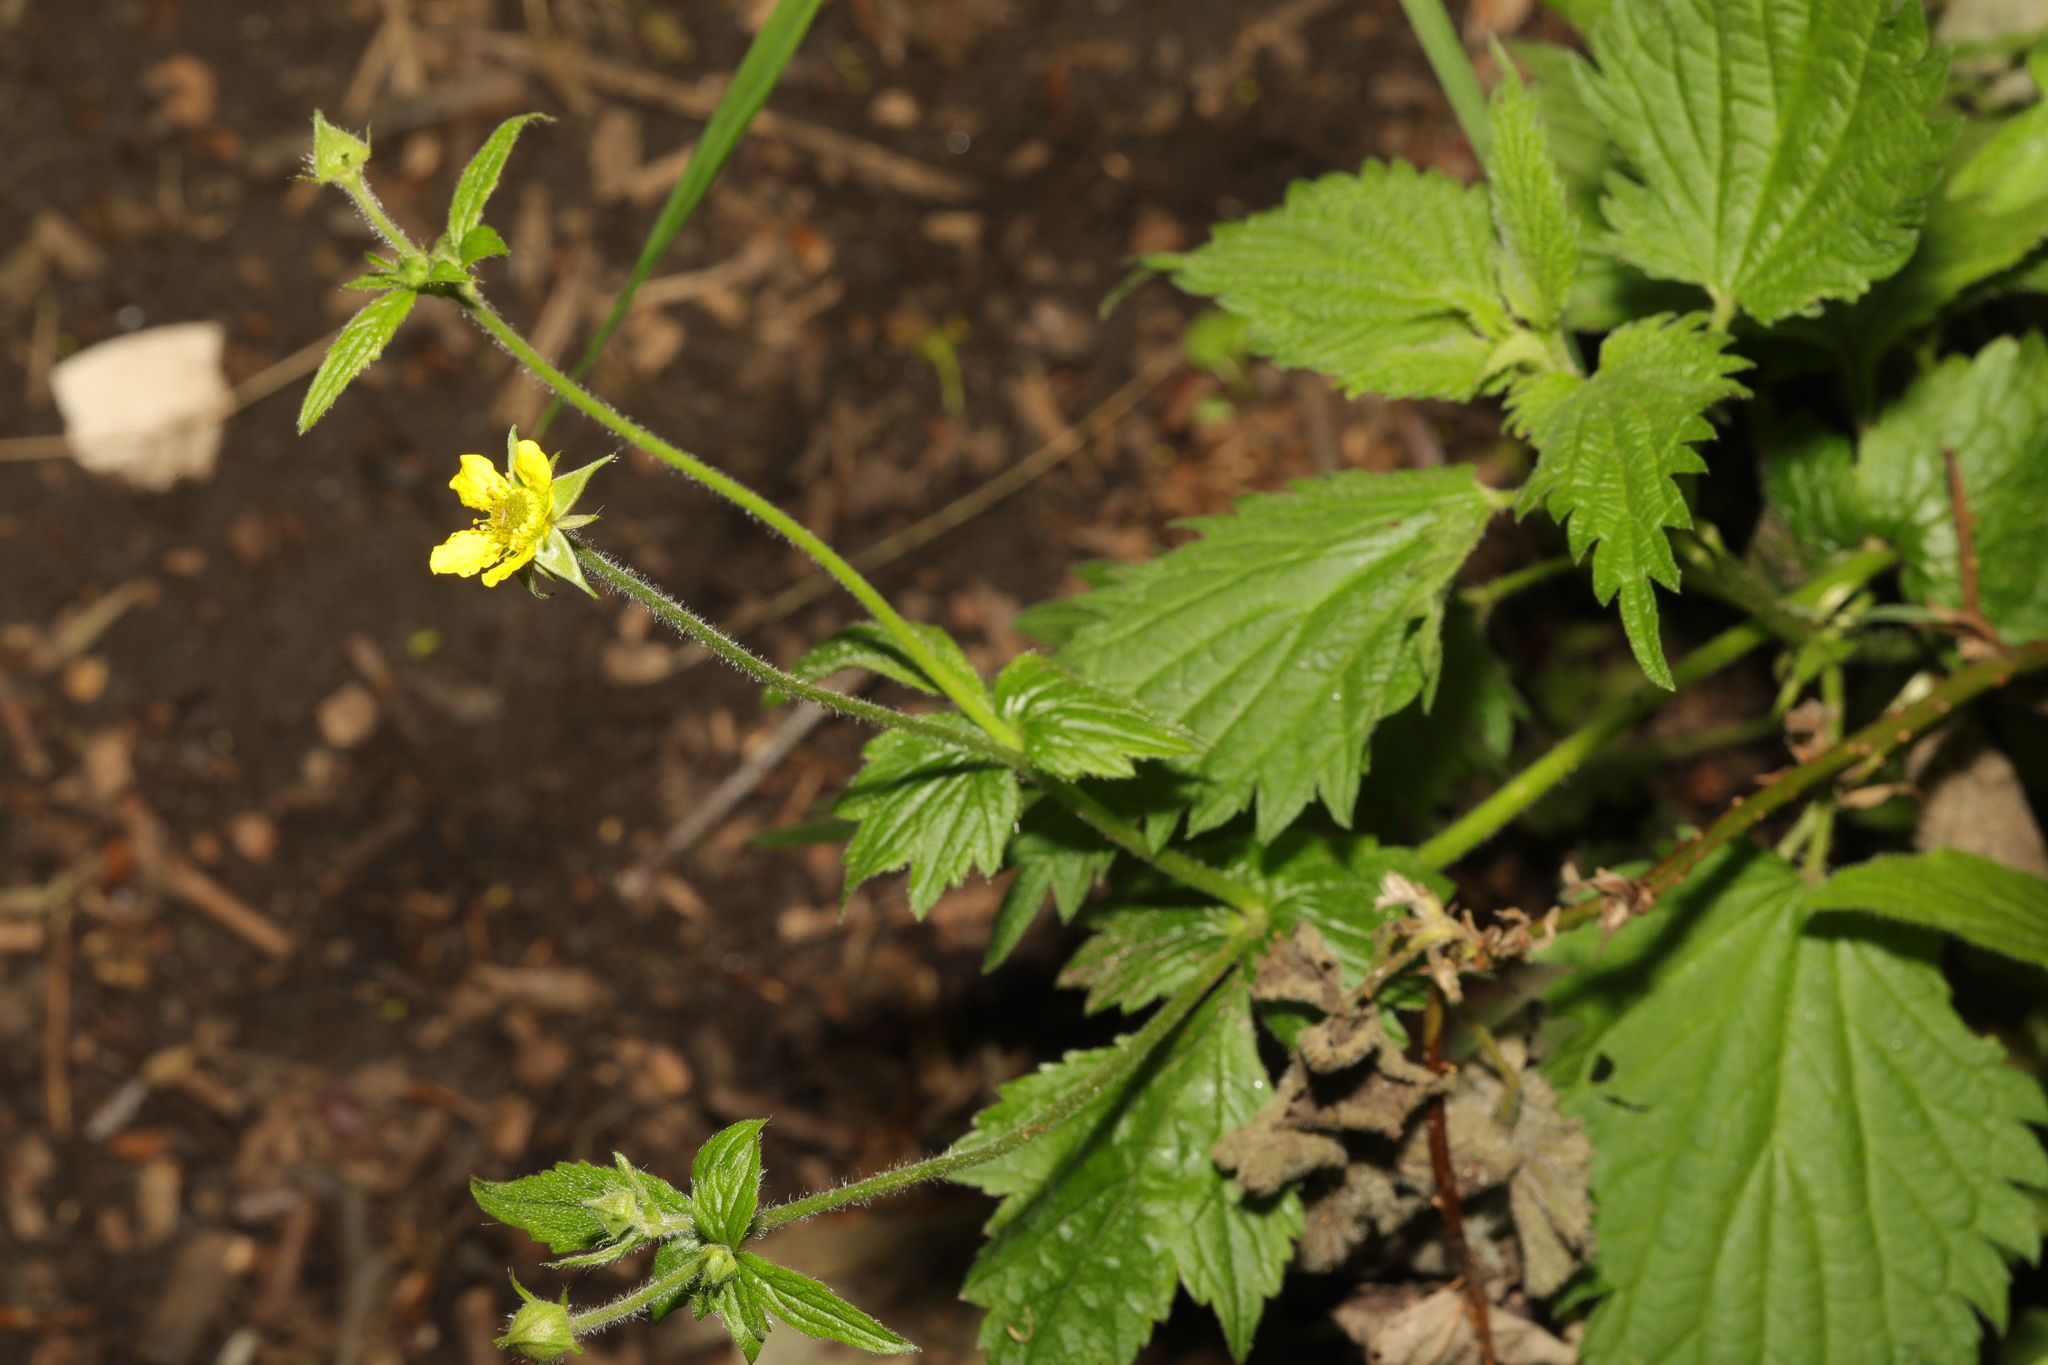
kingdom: Plantae
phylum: Tracheophyta
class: Magnoliopsida
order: Rosales
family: Rosaceae
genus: Geum
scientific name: Geum urbanum
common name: Wood avens
